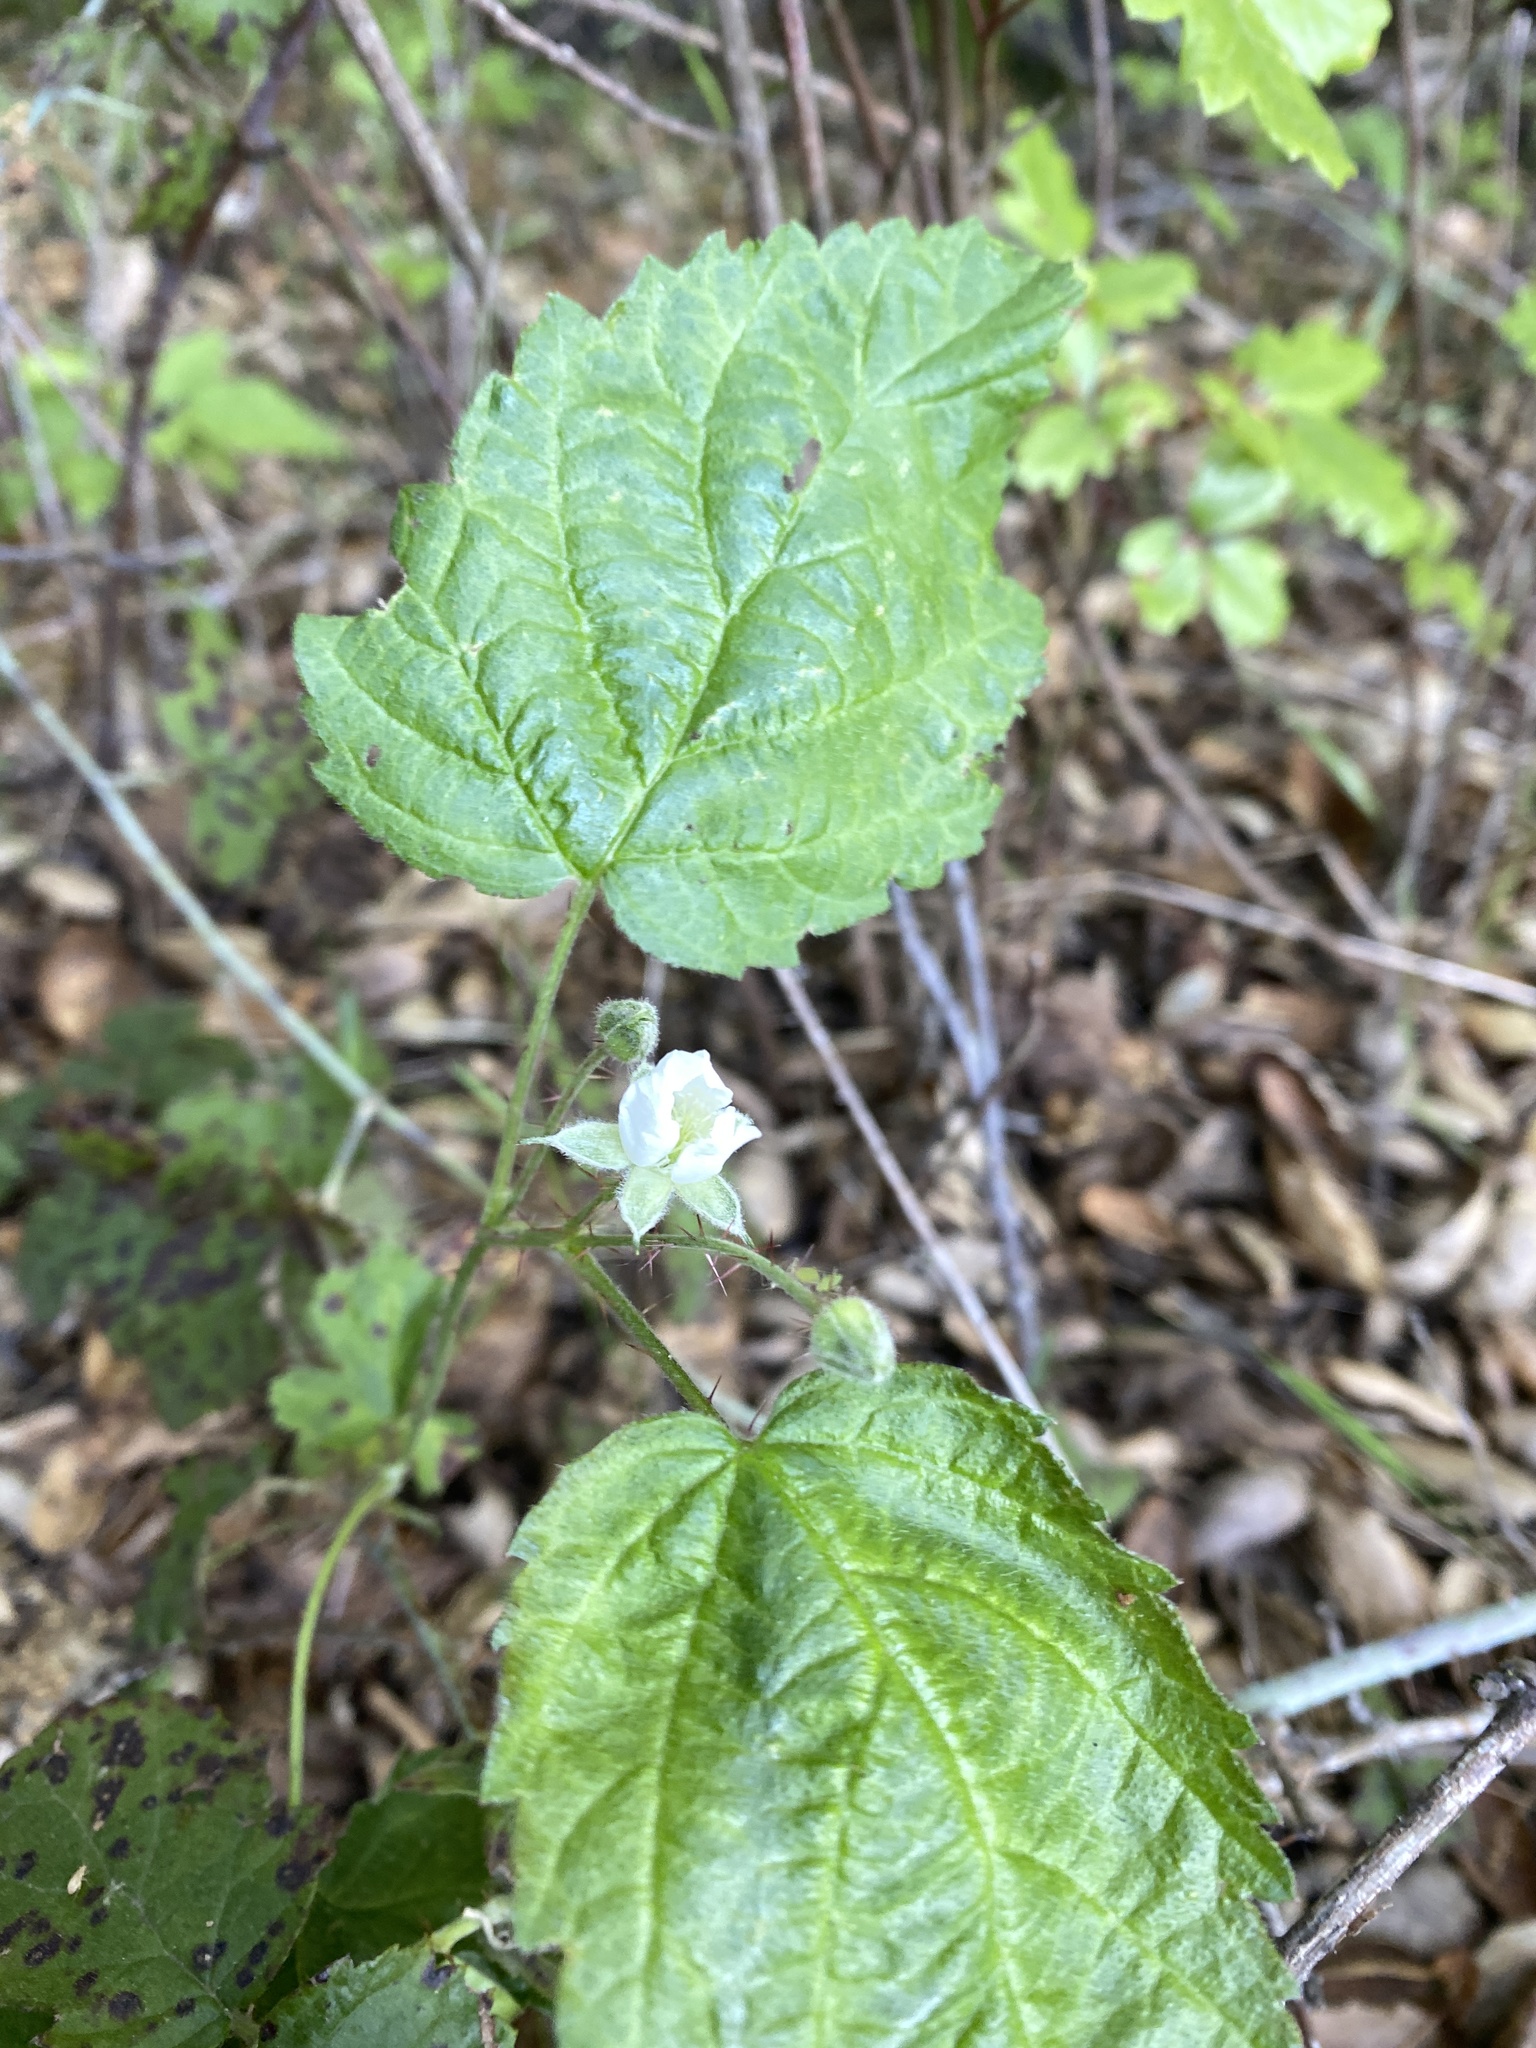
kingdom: Plantae
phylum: Tracheophyta
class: Magnoliopsida
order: Rosales
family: Rosaceae
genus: Rubus
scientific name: Rubus ursinus
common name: Pacific blackberry
